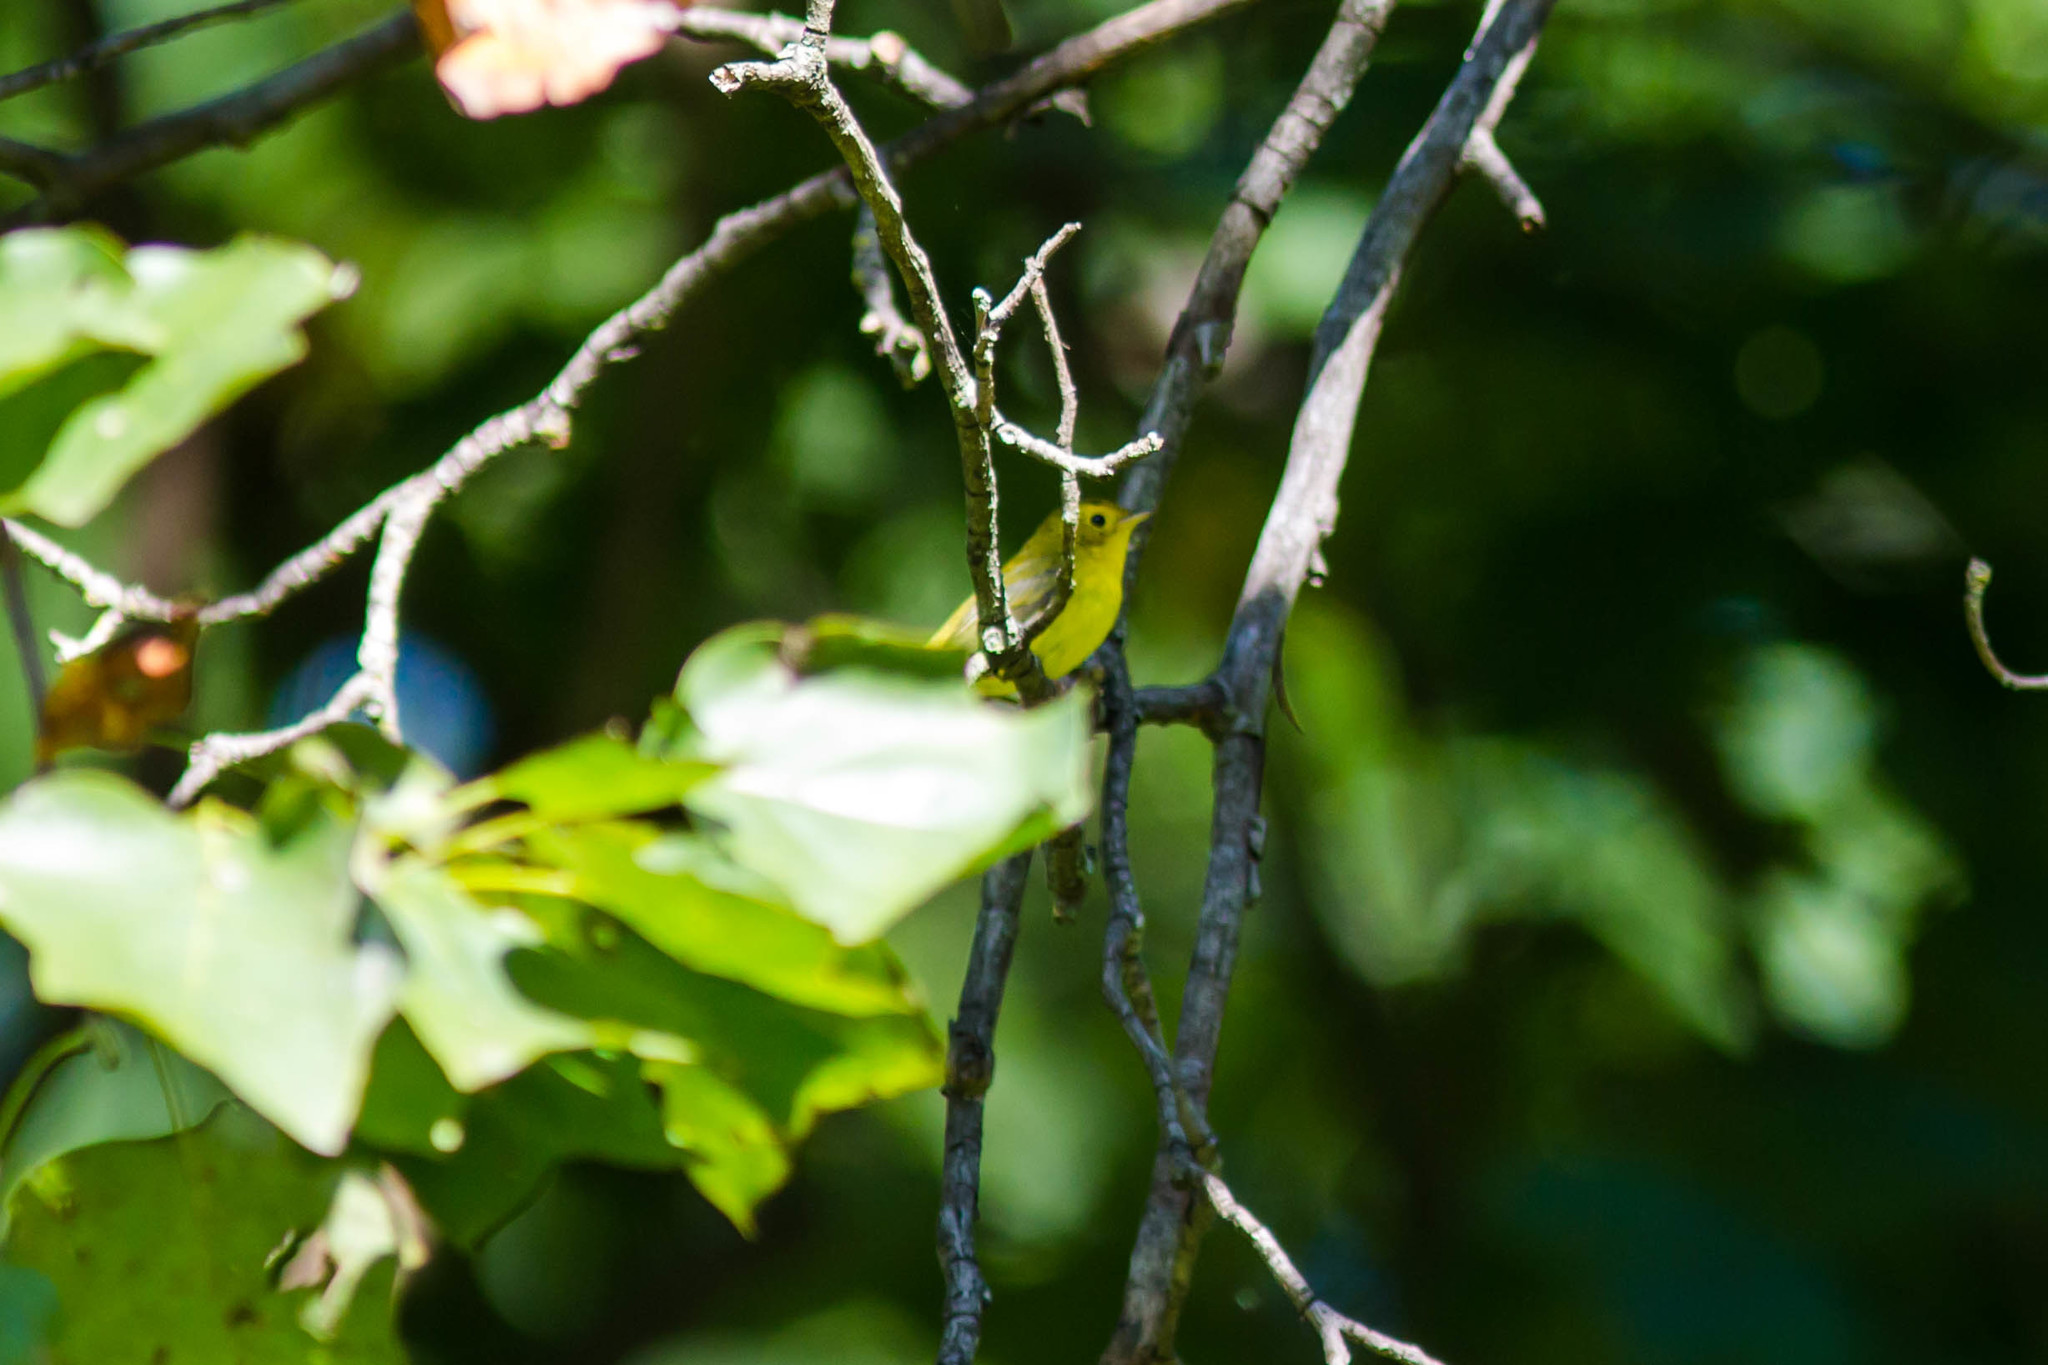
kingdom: Animalia
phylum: Chordata
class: Aves
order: Passeriformes
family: Parulidae
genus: Cardellina
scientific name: Cardellina pusilla
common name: Wilson's warbler
